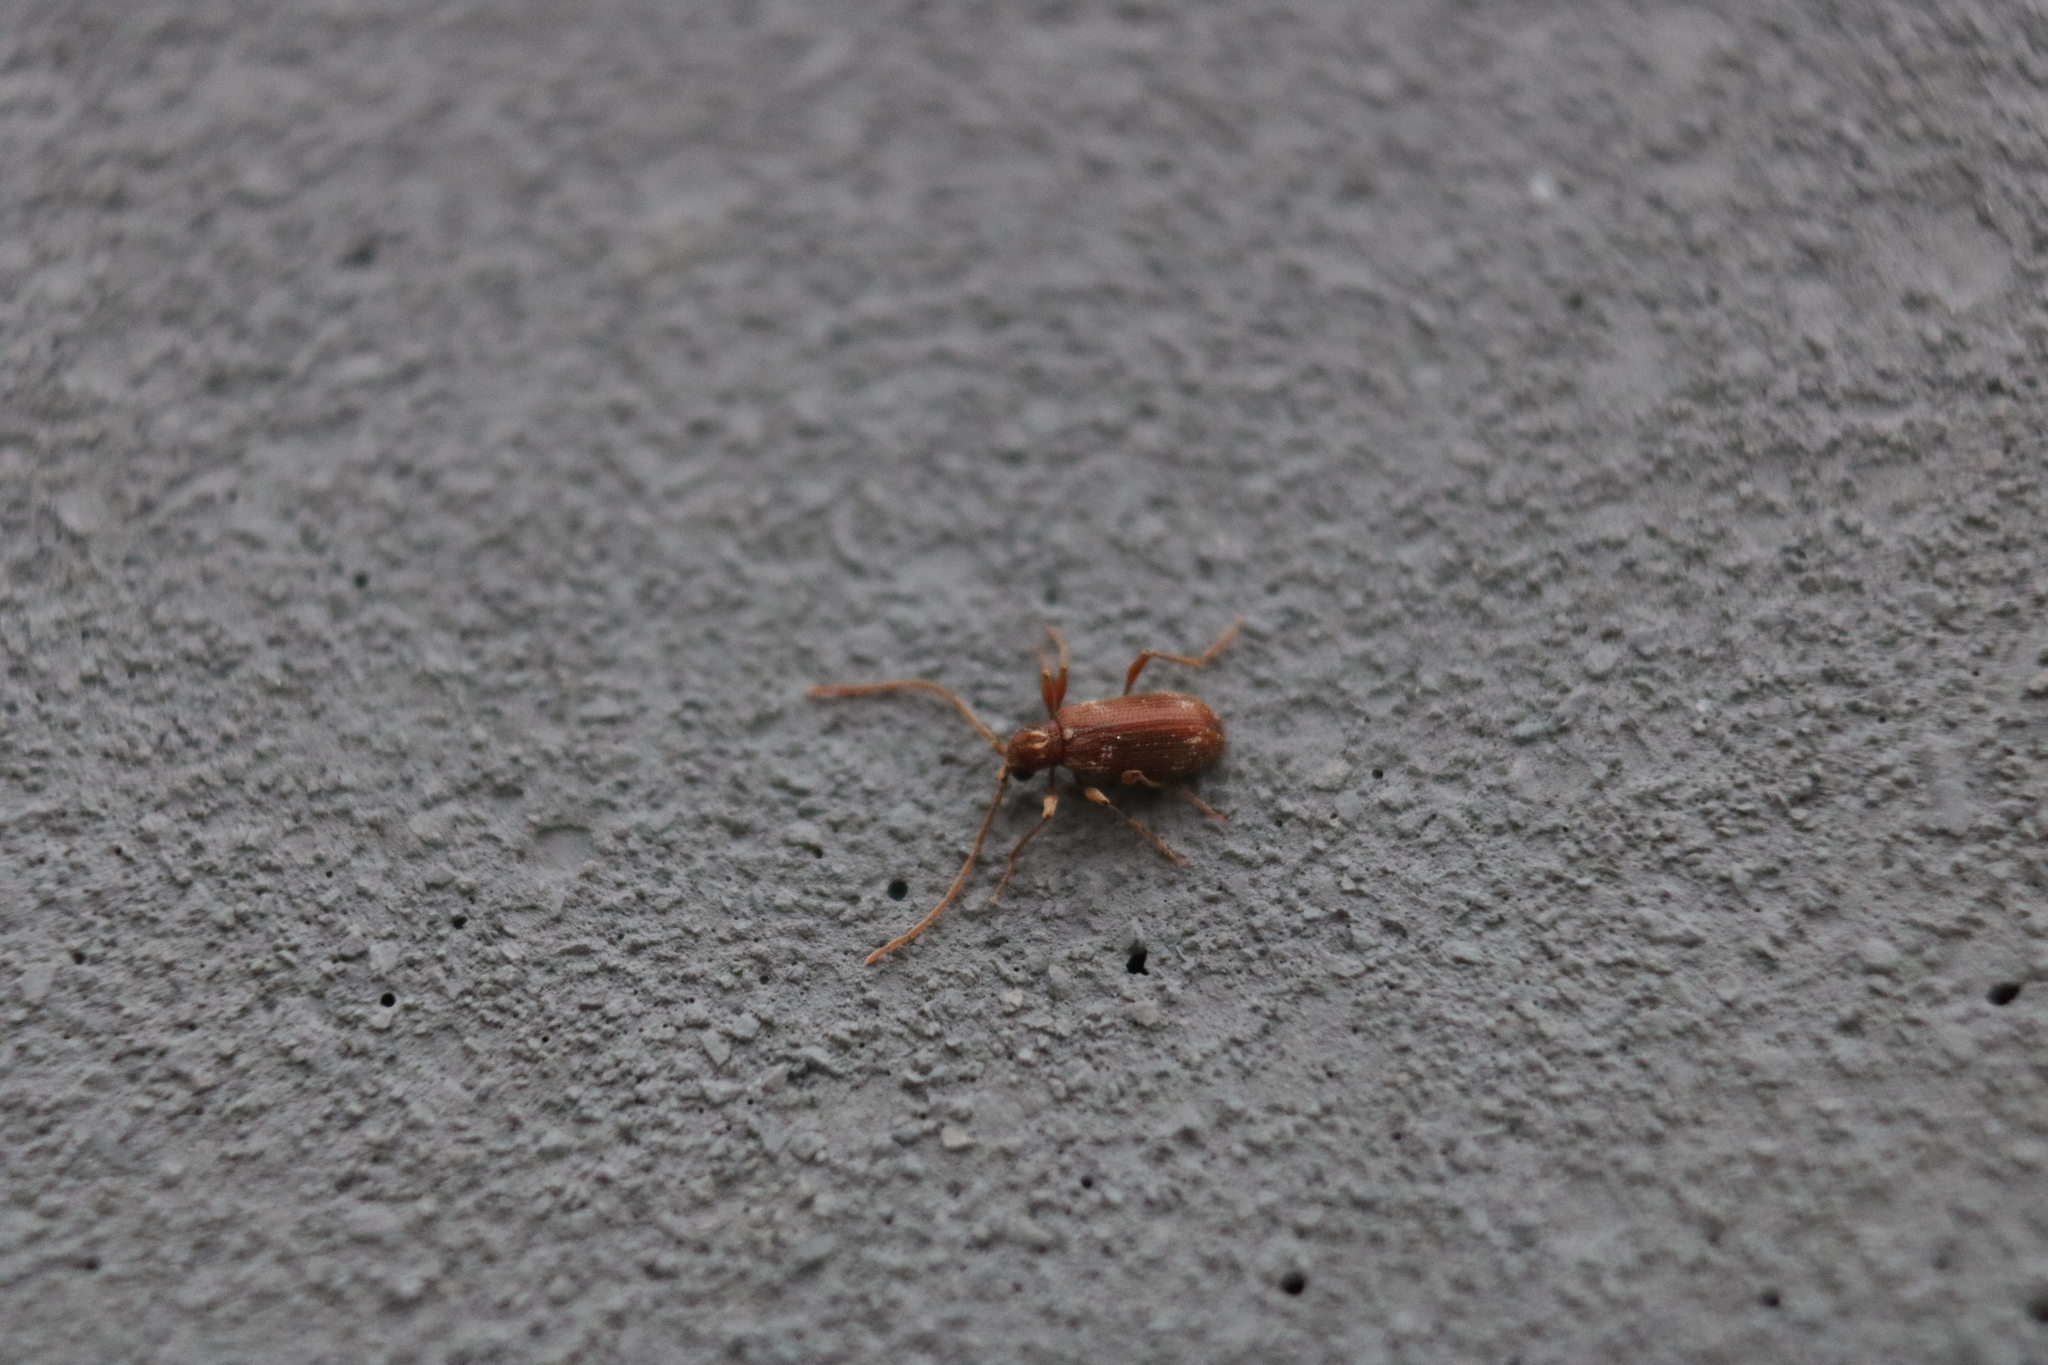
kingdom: Animalia
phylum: Arthropoda
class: Insecta
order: Coleoptera
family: Ptinidae
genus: Ptinus
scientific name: Ptinus fur
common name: White-marked spider beetle
